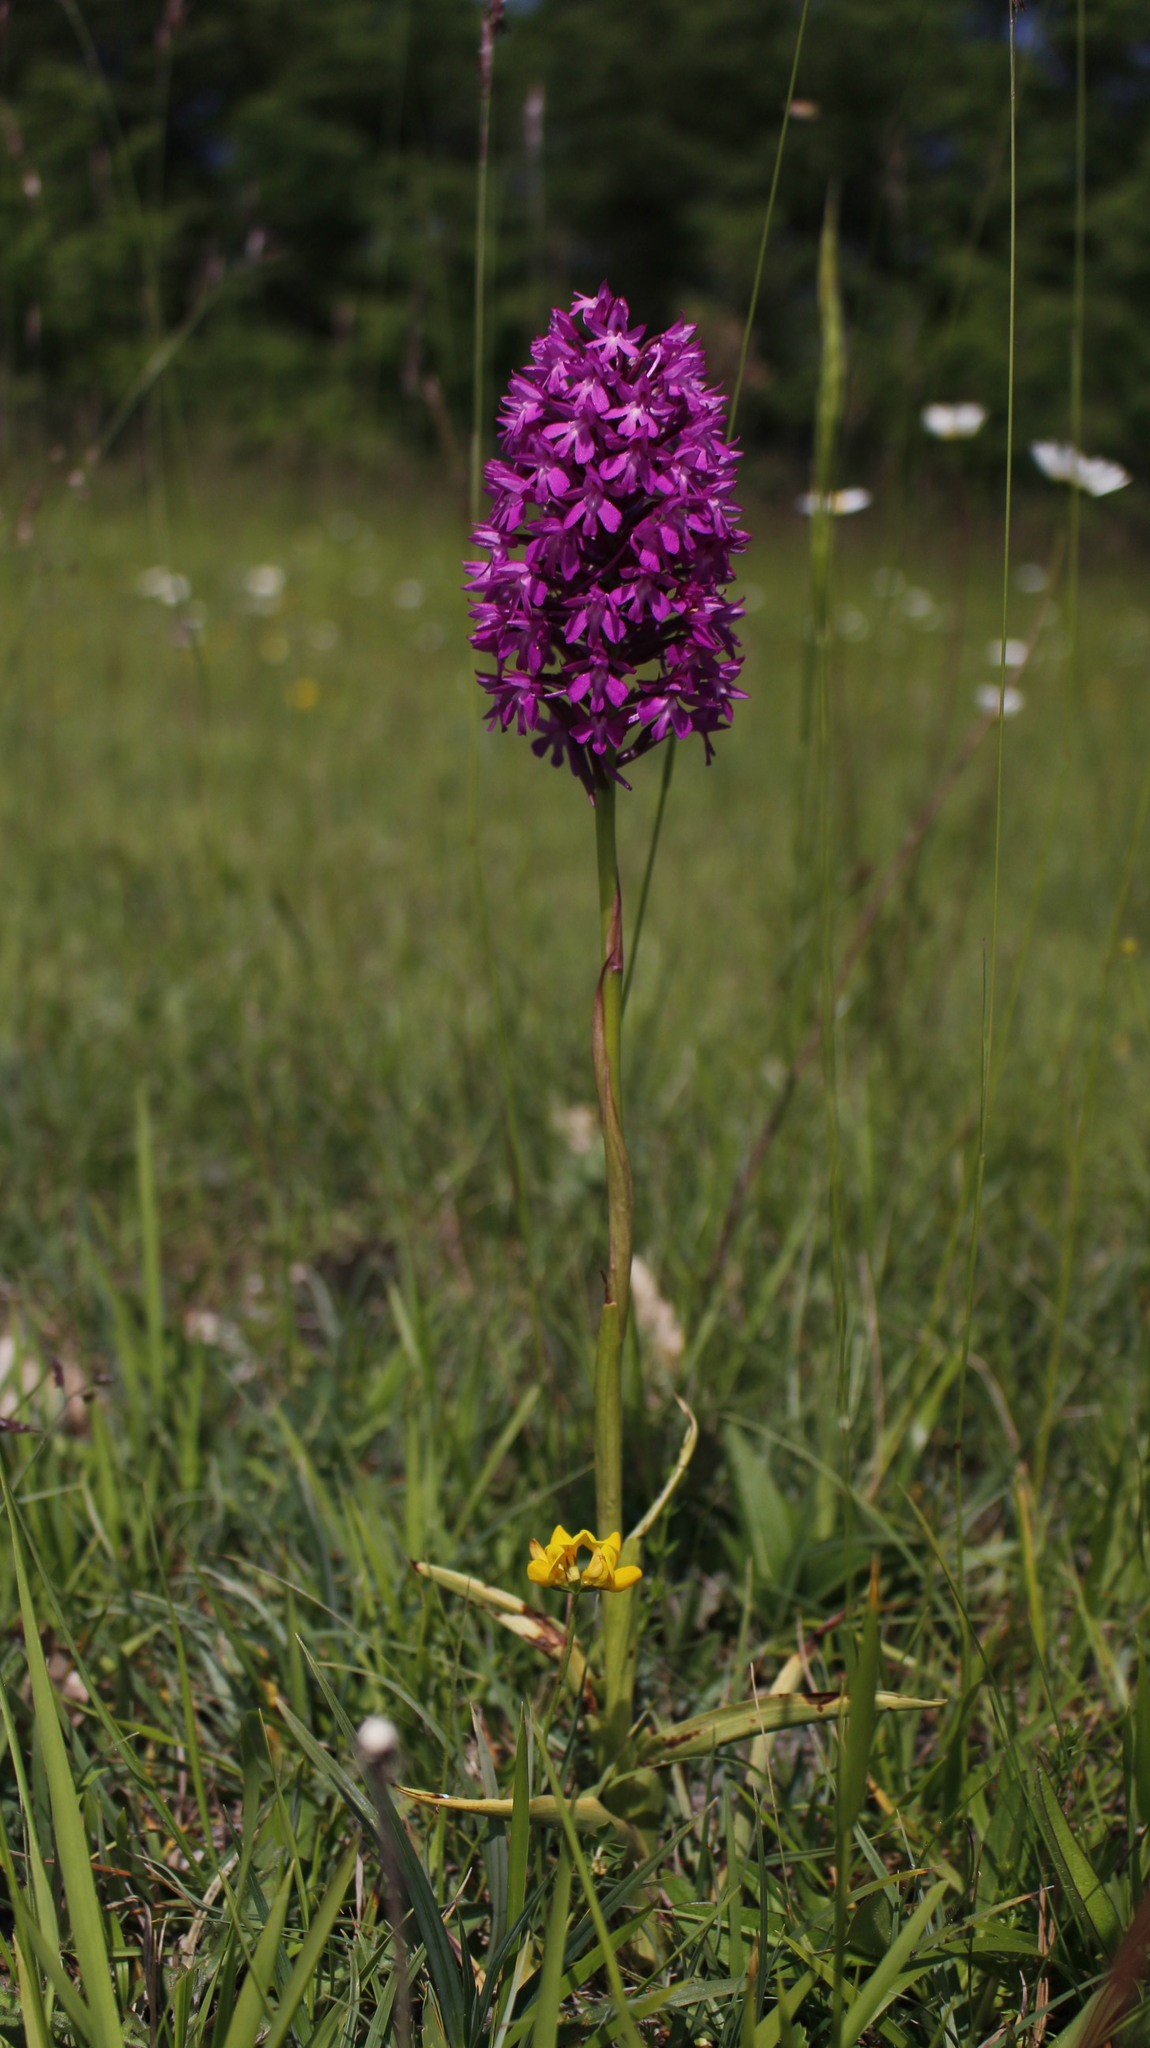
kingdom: Plantae
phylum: Tracheophyta
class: Liliopsida
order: Asparagales
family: Orchidaceae
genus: Anacamptis
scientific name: Anacamptis pyramidalis
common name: Pyramidal orchid
